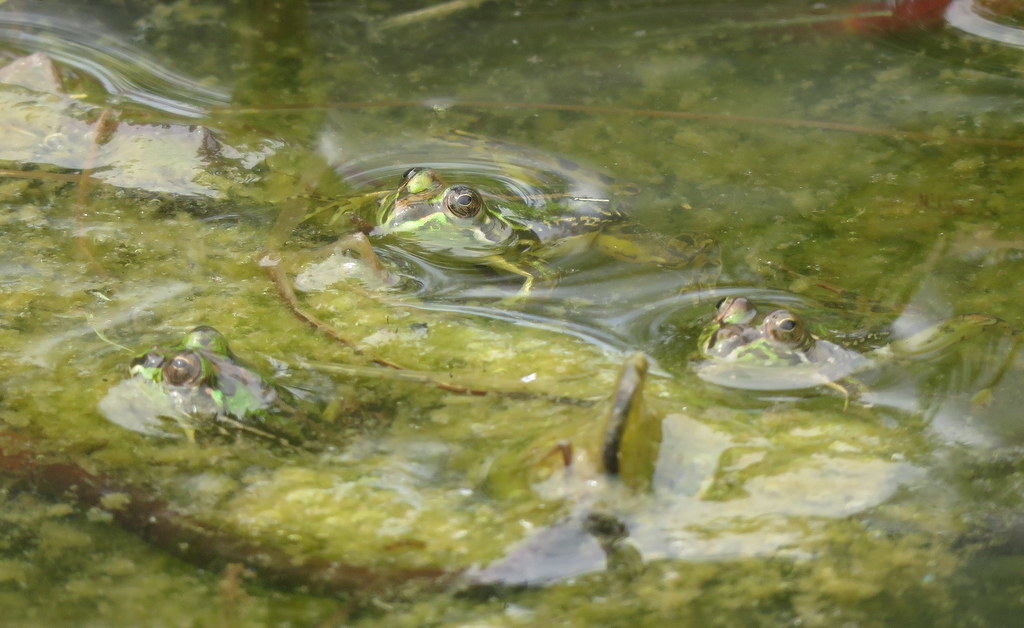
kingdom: Animalia
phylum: Chordata
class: Amphibia
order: Anura
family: Hylidae
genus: Pseudis
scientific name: Pseudis minuta
